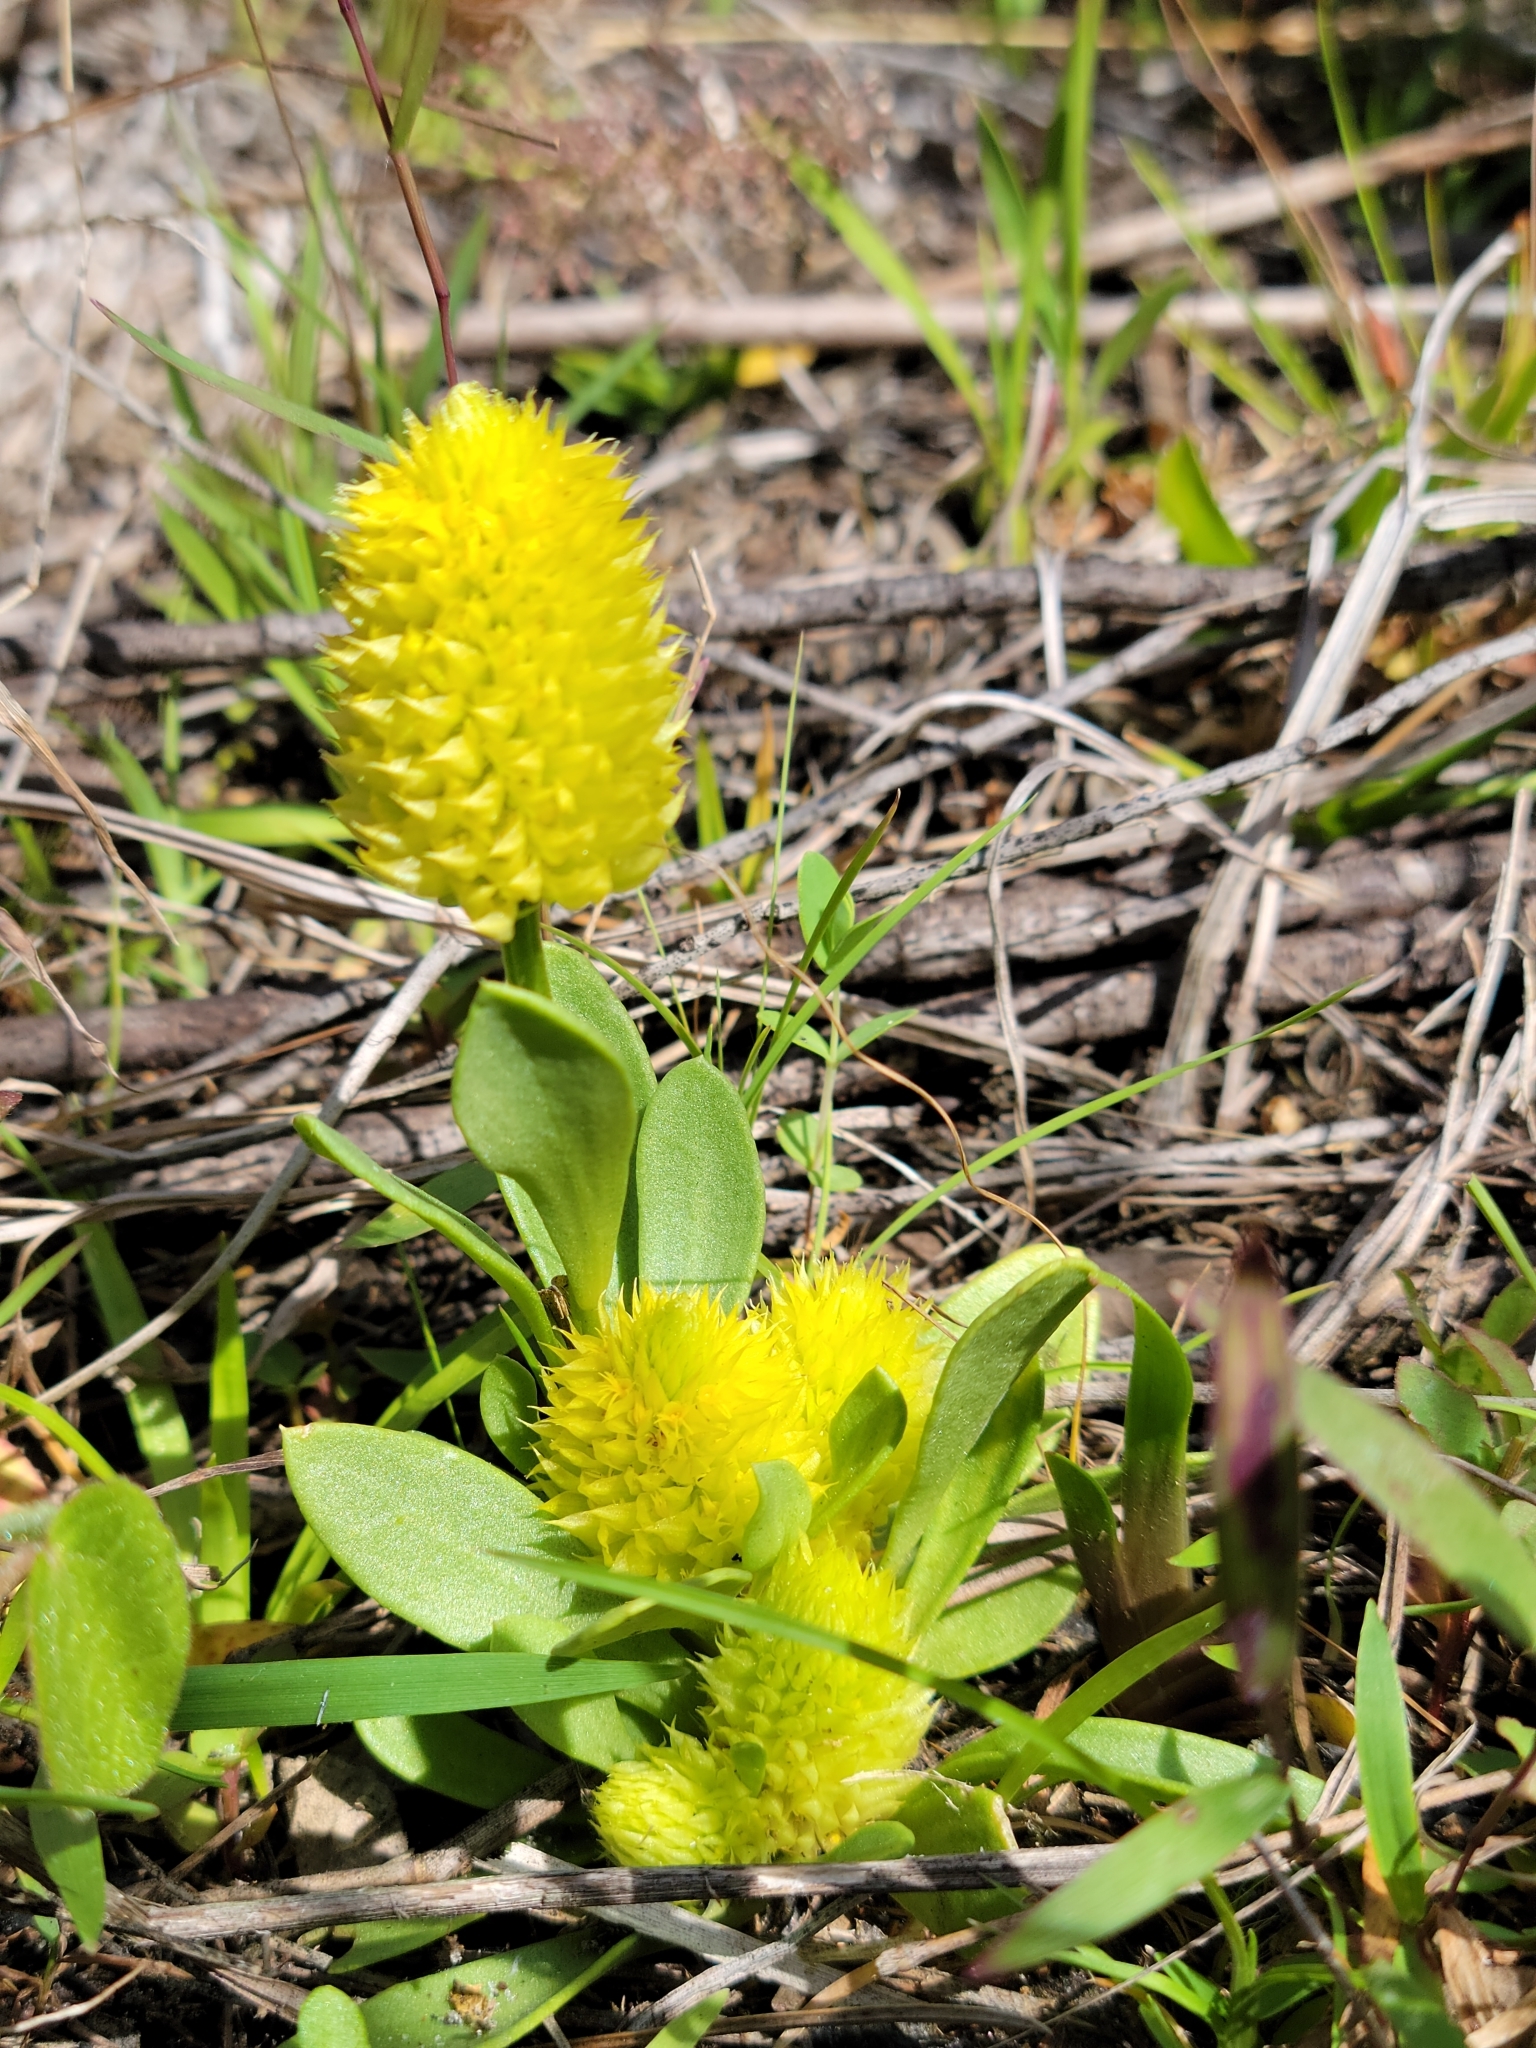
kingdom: Plantae
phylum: Tracheophyta
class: Magnoliopsida
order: Fabales
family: Polygalaceae
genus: Polygala
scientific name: Polygala nana
